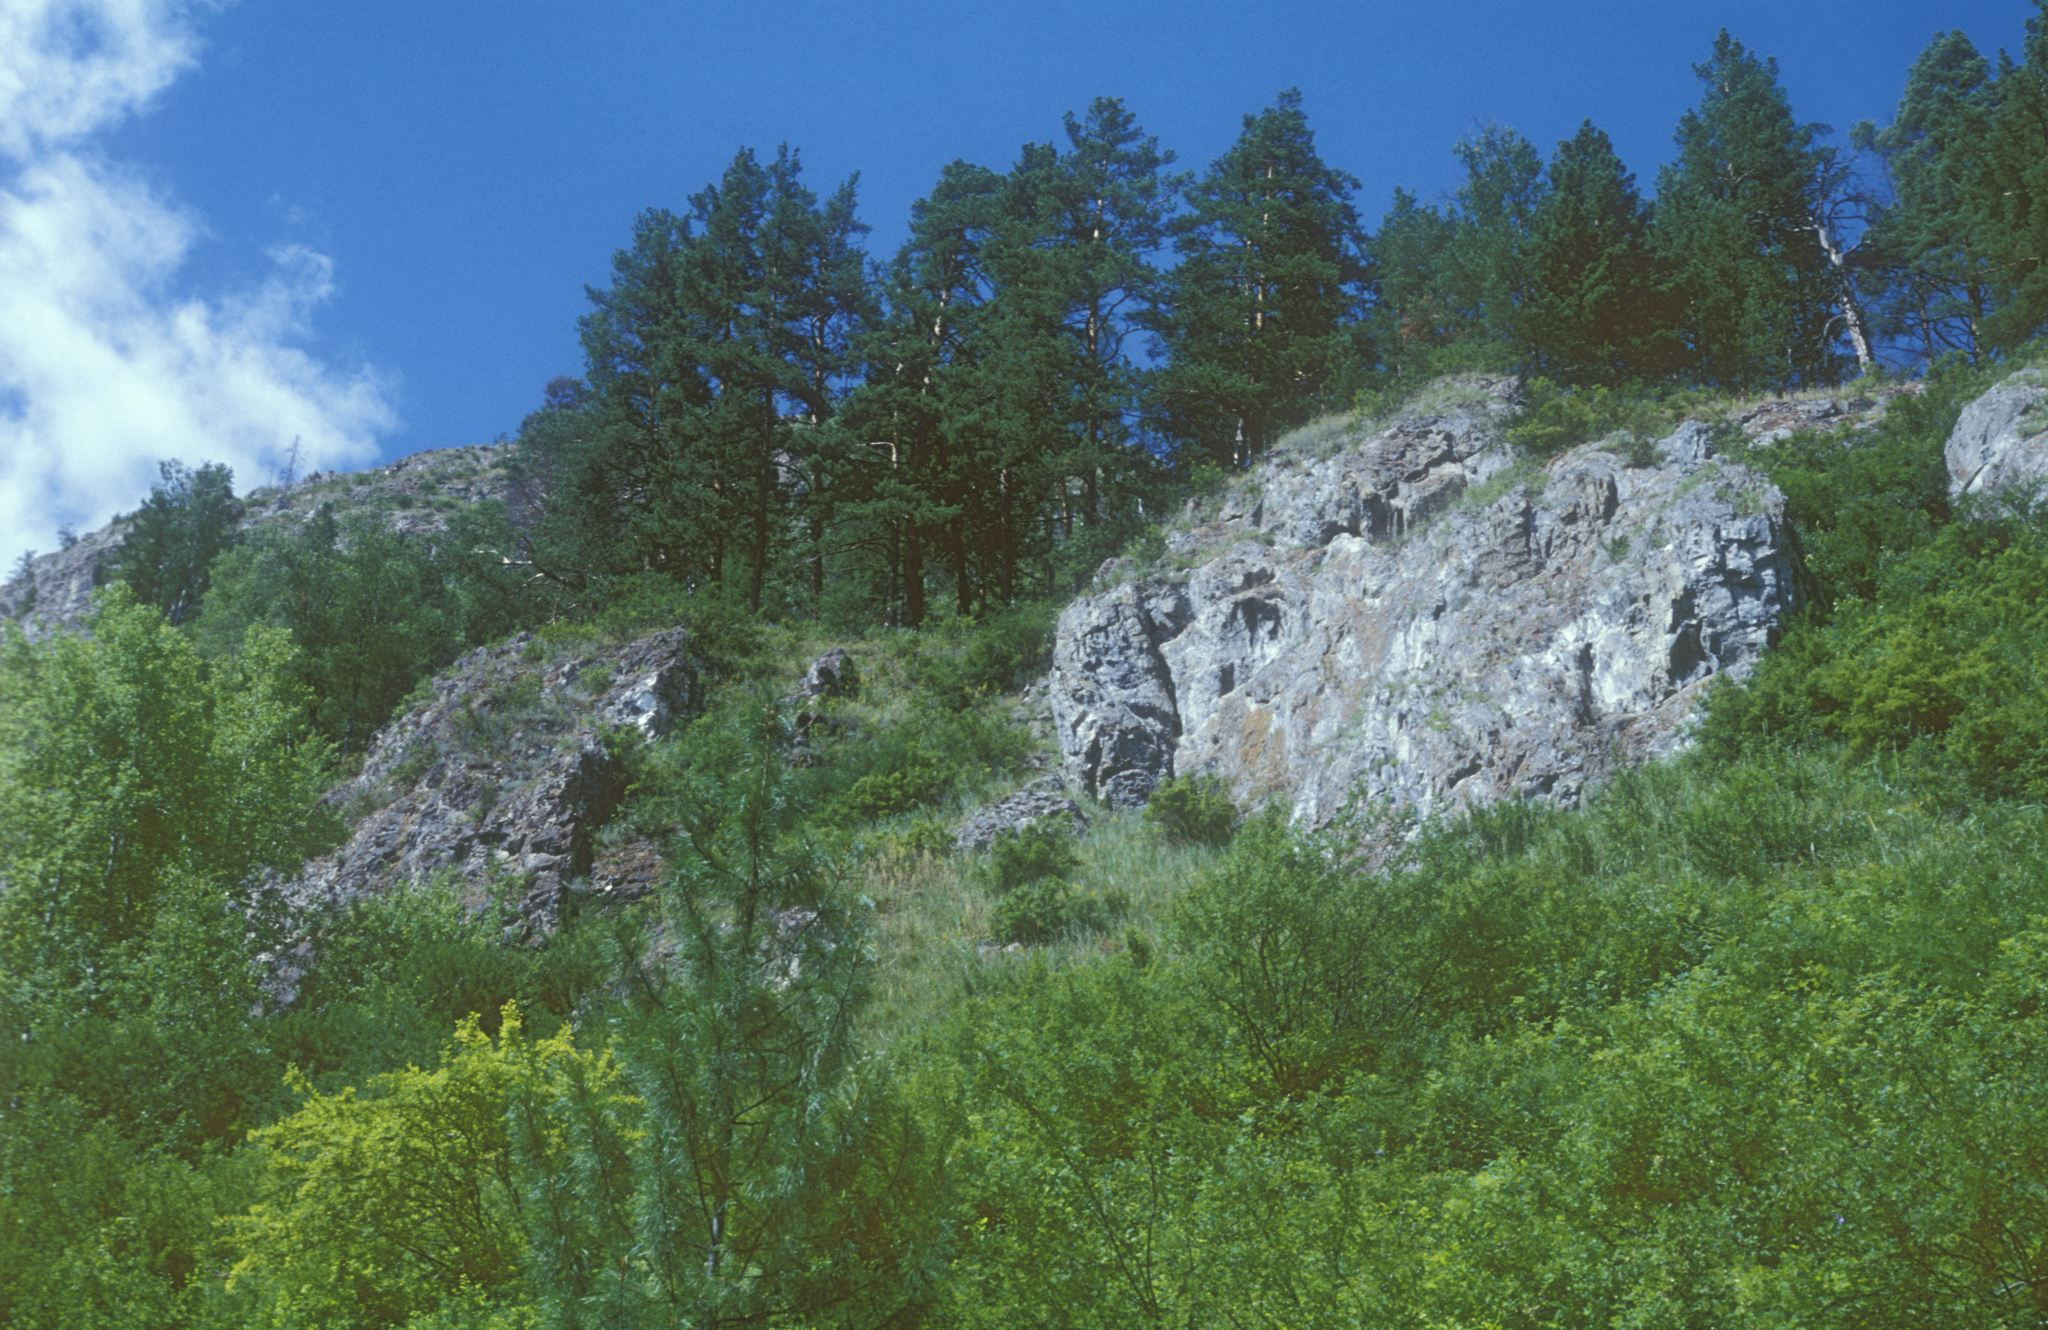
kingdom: Plantae
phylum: Tracheophyta
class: Pinopsida
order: Pinales
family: Pinaceae
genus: Pinus
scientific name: Pinus sylvestris
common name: Scots pine
